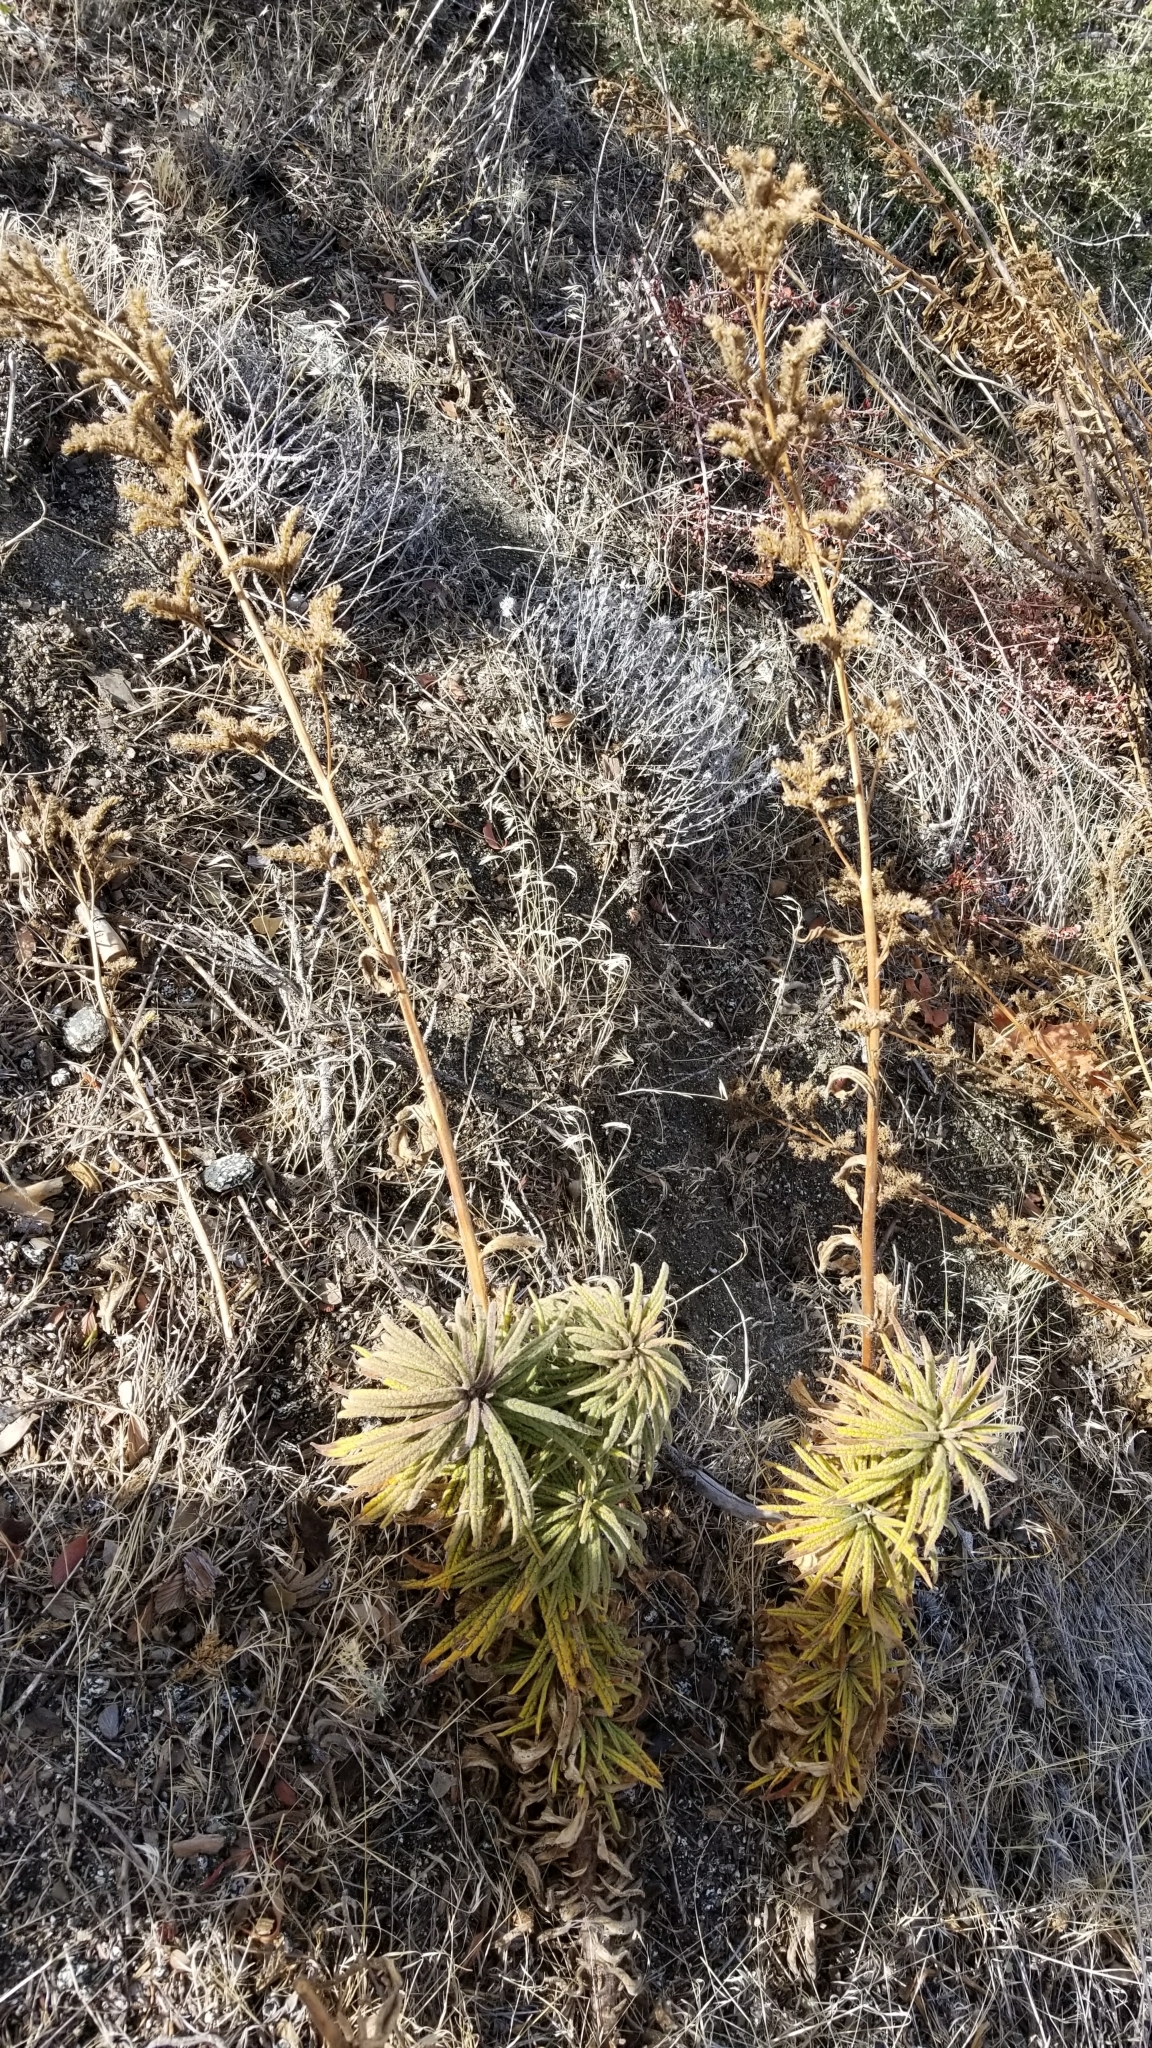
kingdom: Plantae
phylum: Tracheophyta
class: Magnoliopsida
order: Boraginales
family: Namaceae
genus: Turricula
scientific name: Turricula parryi
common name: Poodle-dog-bush
